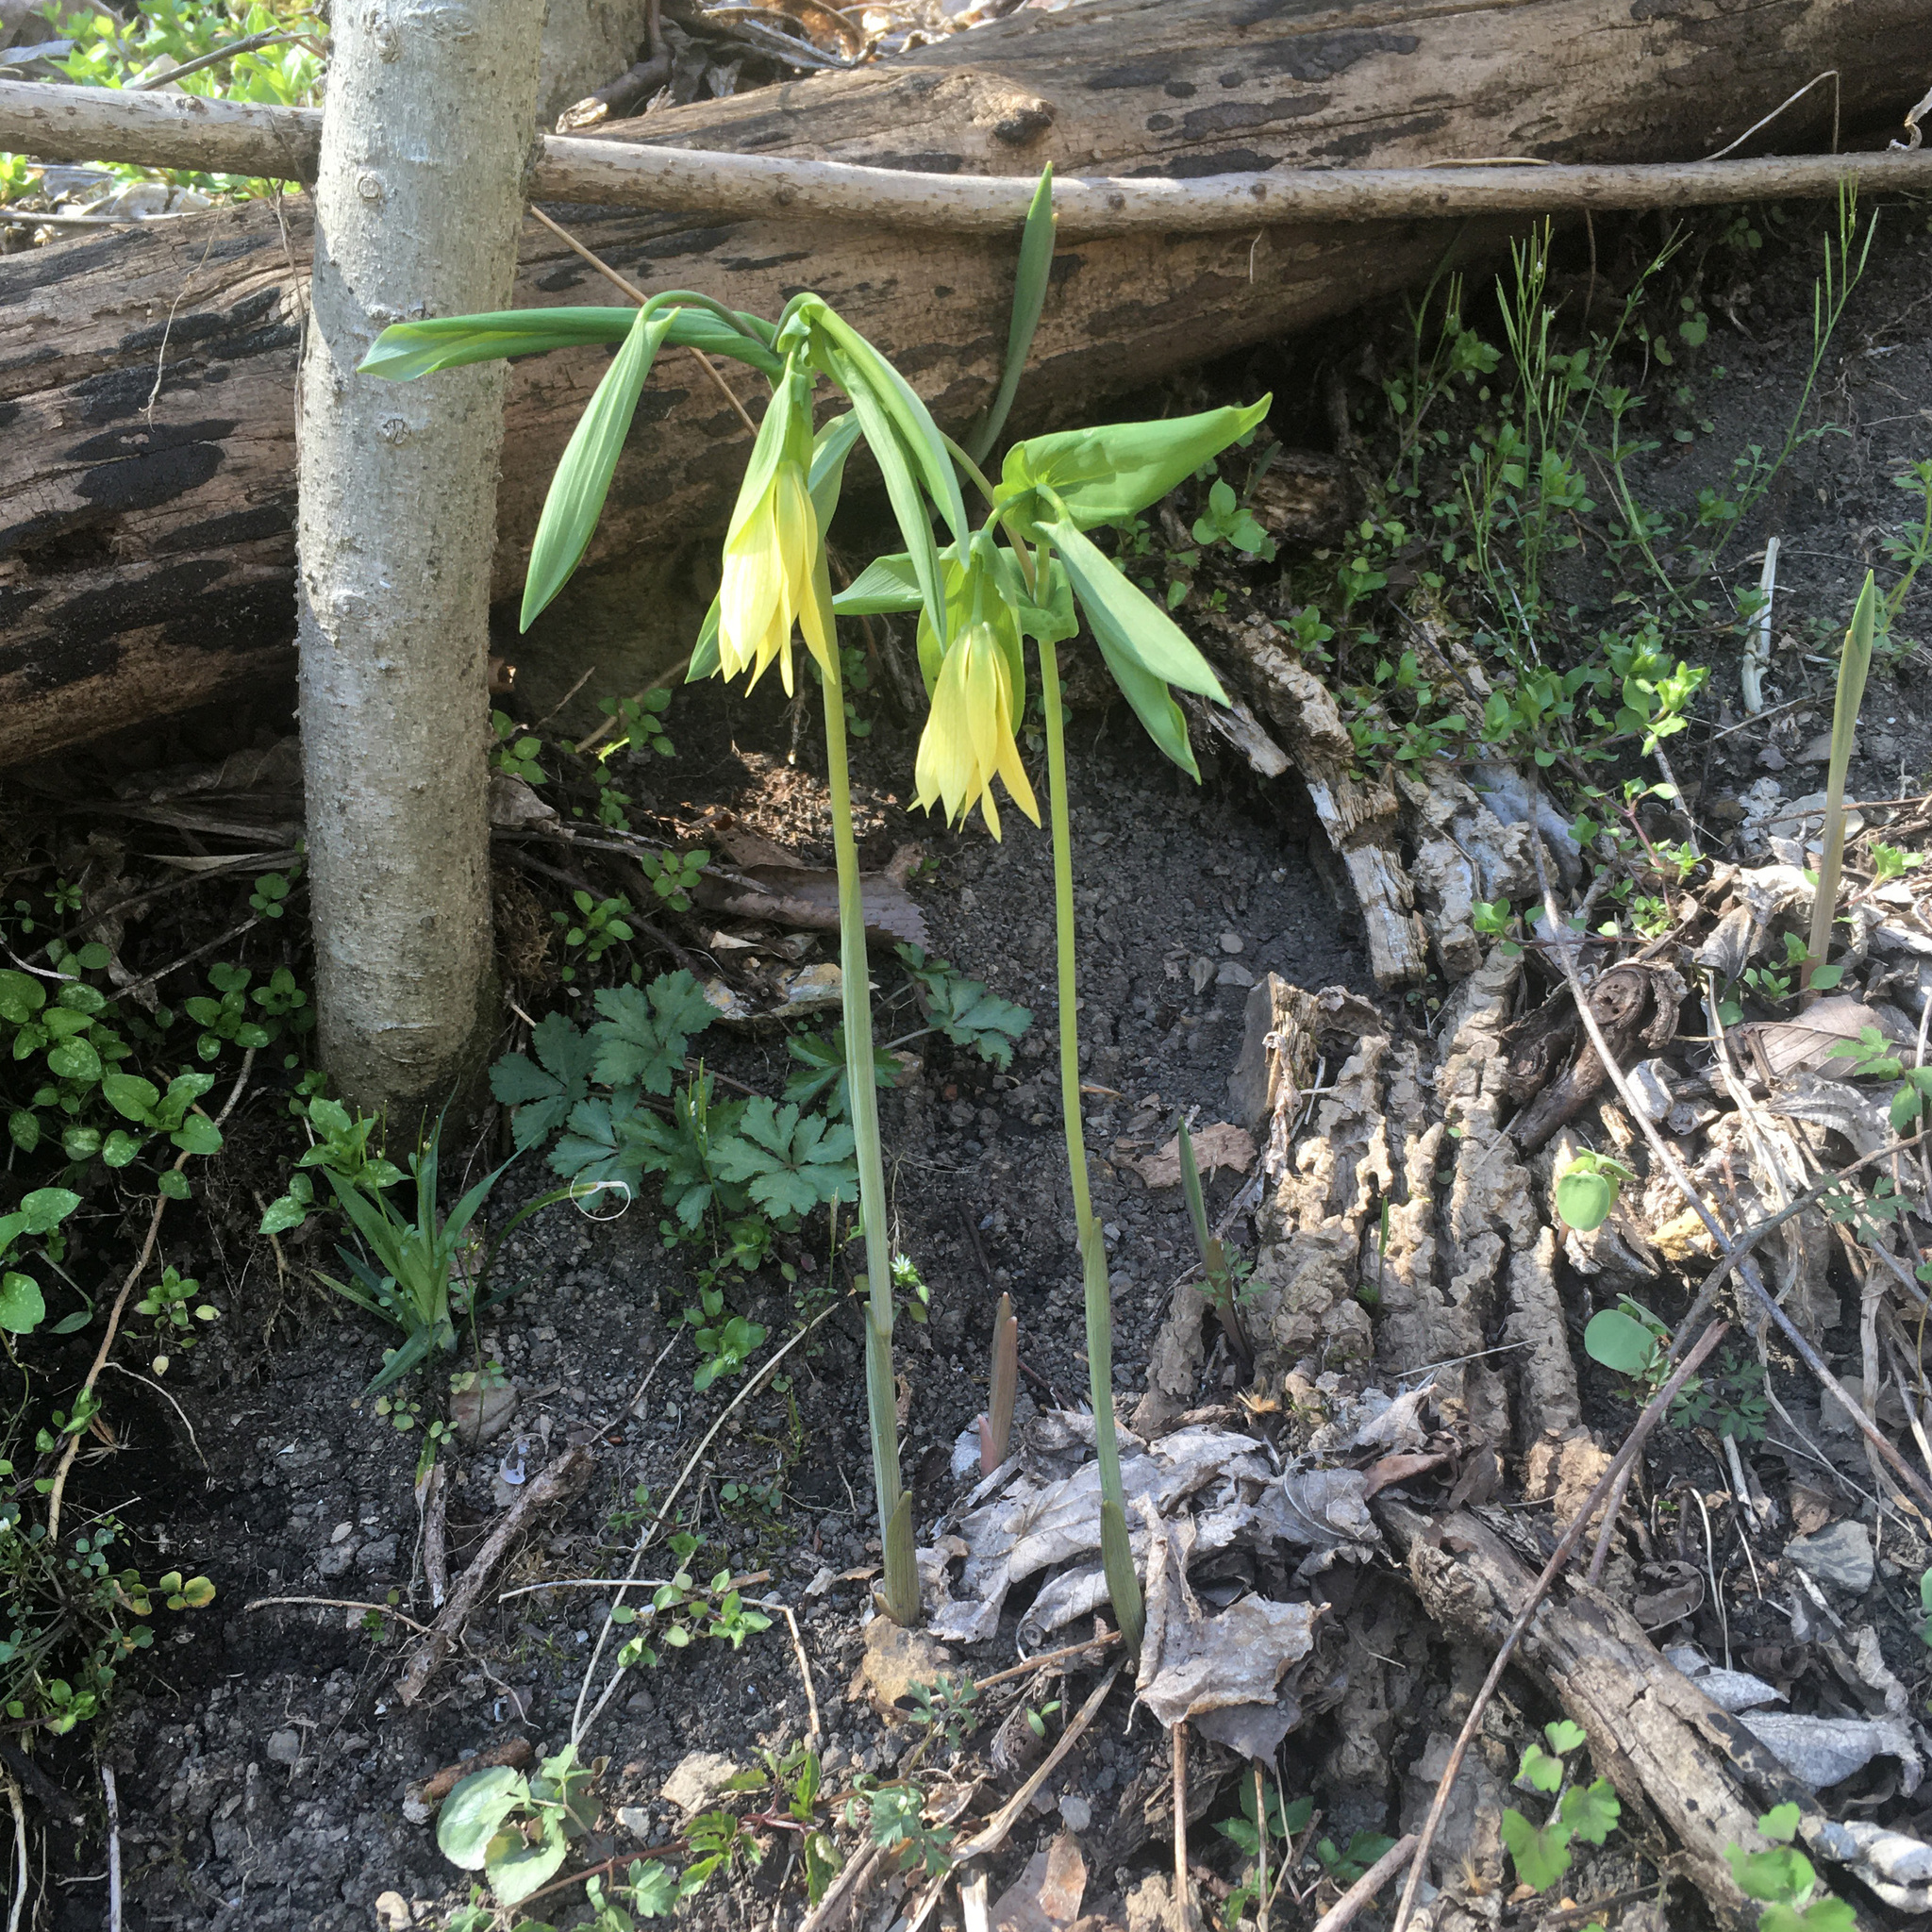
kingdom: Plantae
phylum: Tracheophyta
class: Liliopsida
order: Liliales
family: Colchicaceae
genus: Uvularia
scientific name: Uvularia grandiflora
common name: Bellwort
